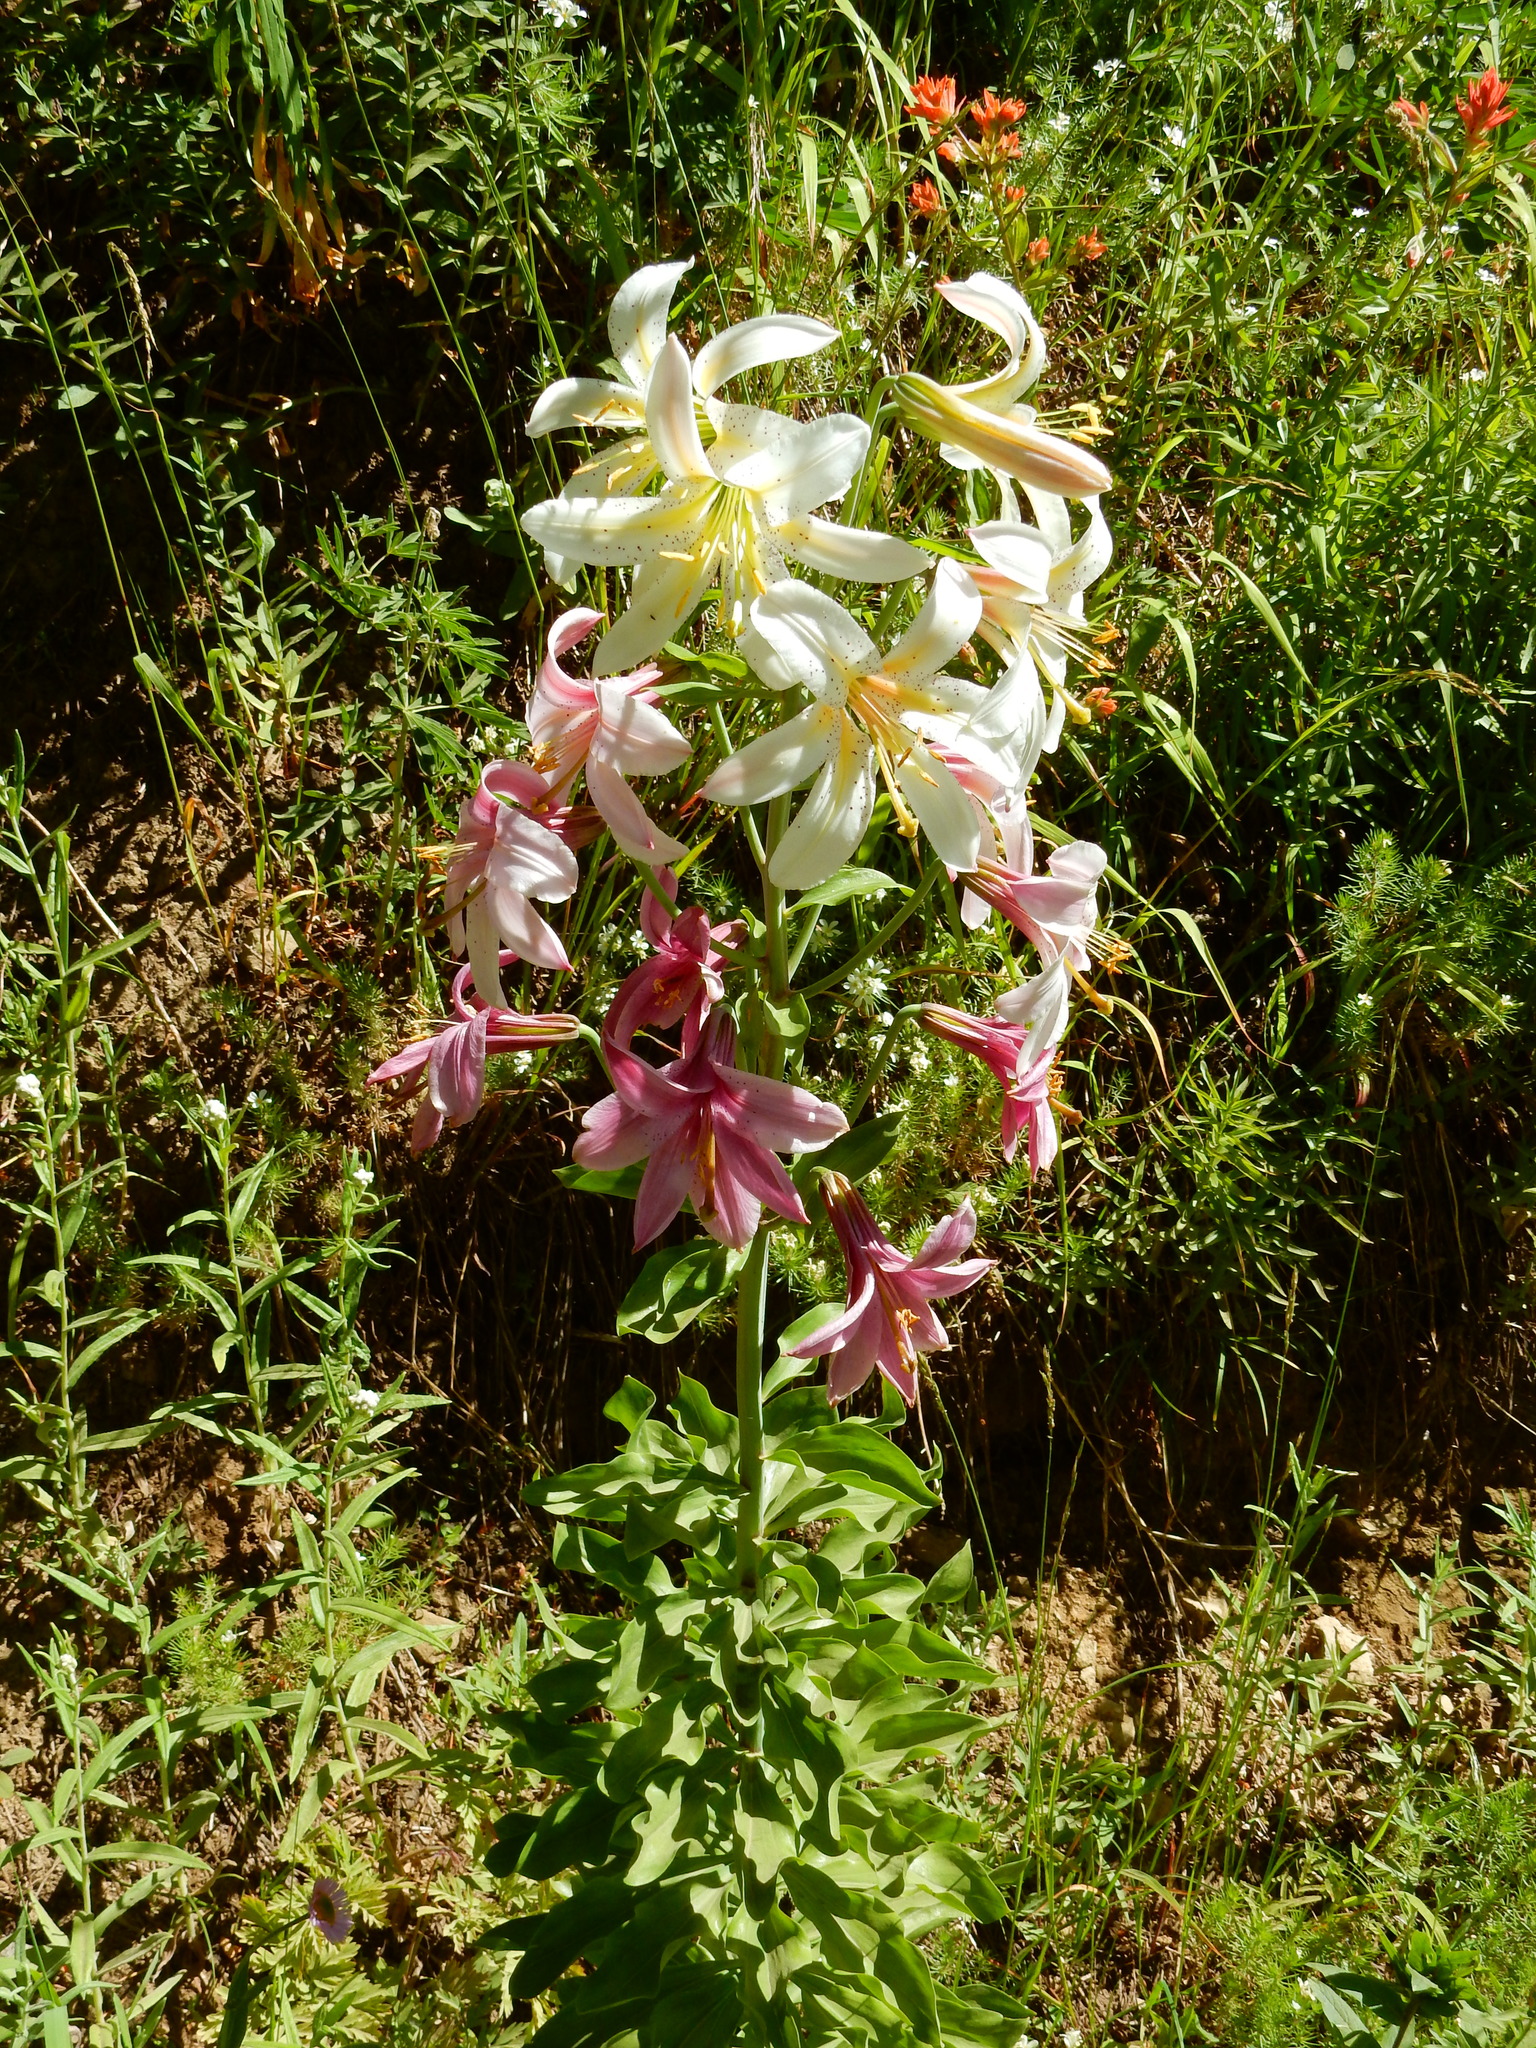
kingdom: Plantae
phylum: Tracheophyta
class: Liliopsida
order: Liliales
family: Liliaceae
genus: Lilium
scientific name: Lilium washingtonianum
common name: Washington lily
